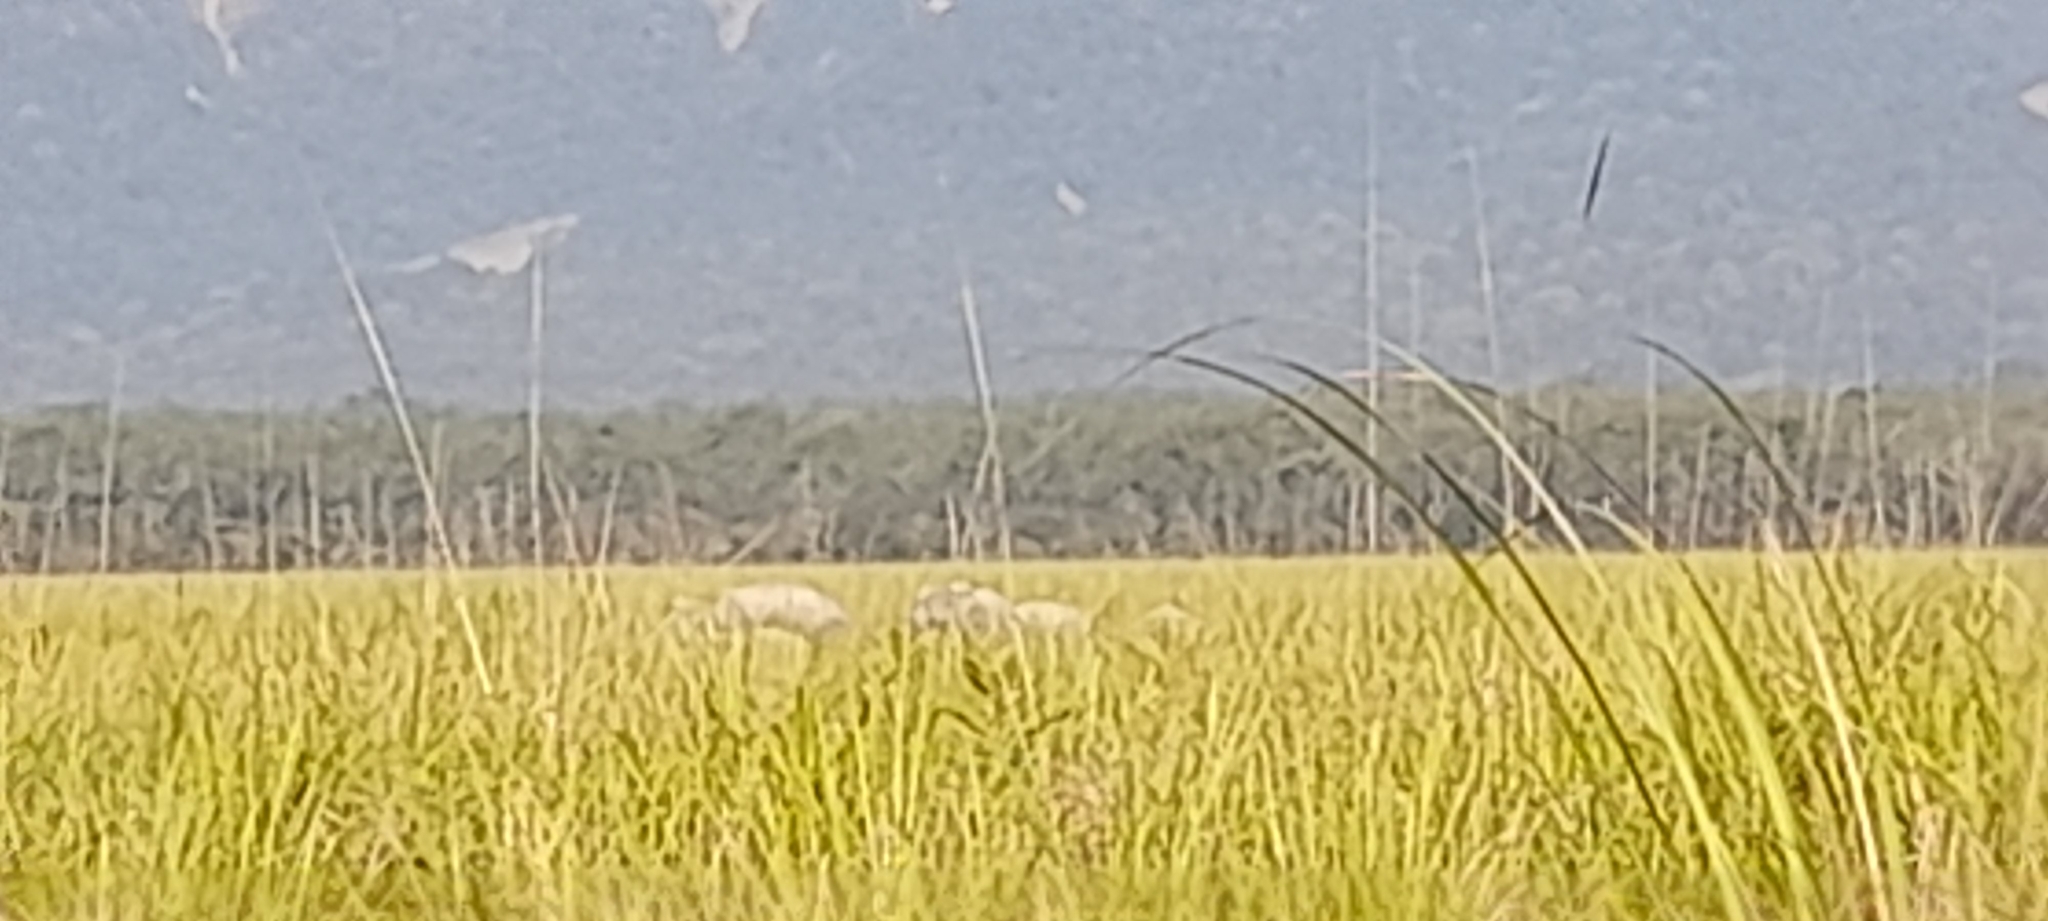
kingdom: Animalia
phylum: Chordata
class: Mammalia
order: Proboscidea
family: Elephantidae
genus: Elephas
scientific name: Elephas maximus
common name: Asian elephant
